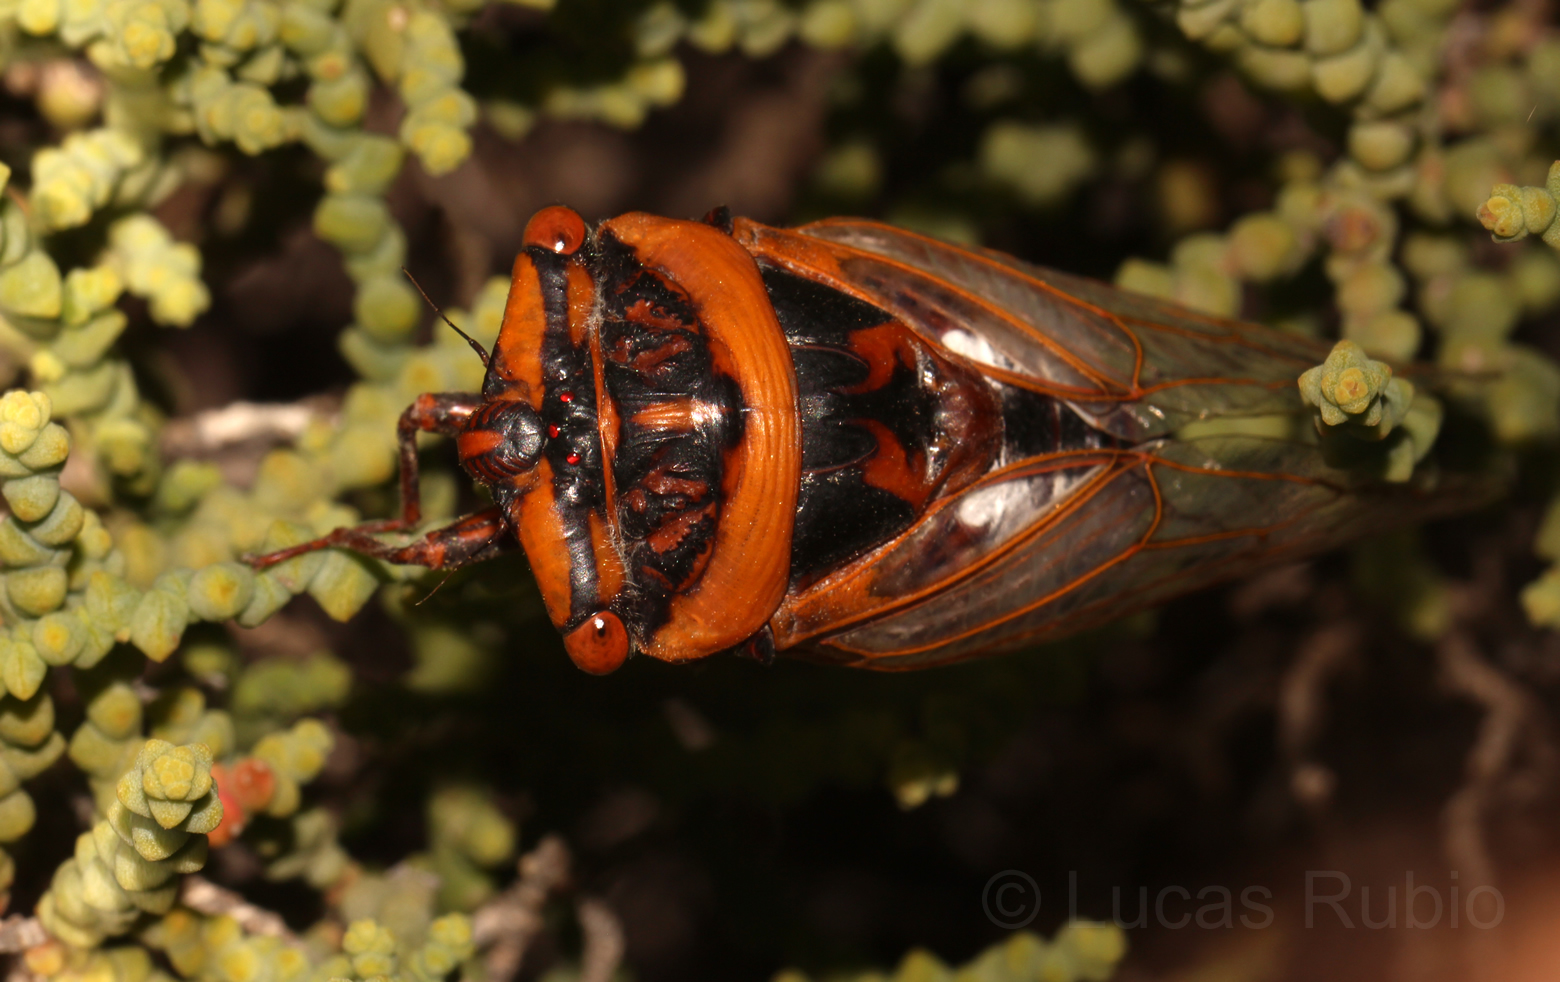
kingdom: Animalia
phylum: Arthropoda
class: Insecta
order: Hemiptera
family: Cicadidae
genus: Chonosia
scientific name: Chonosia crassipennis
